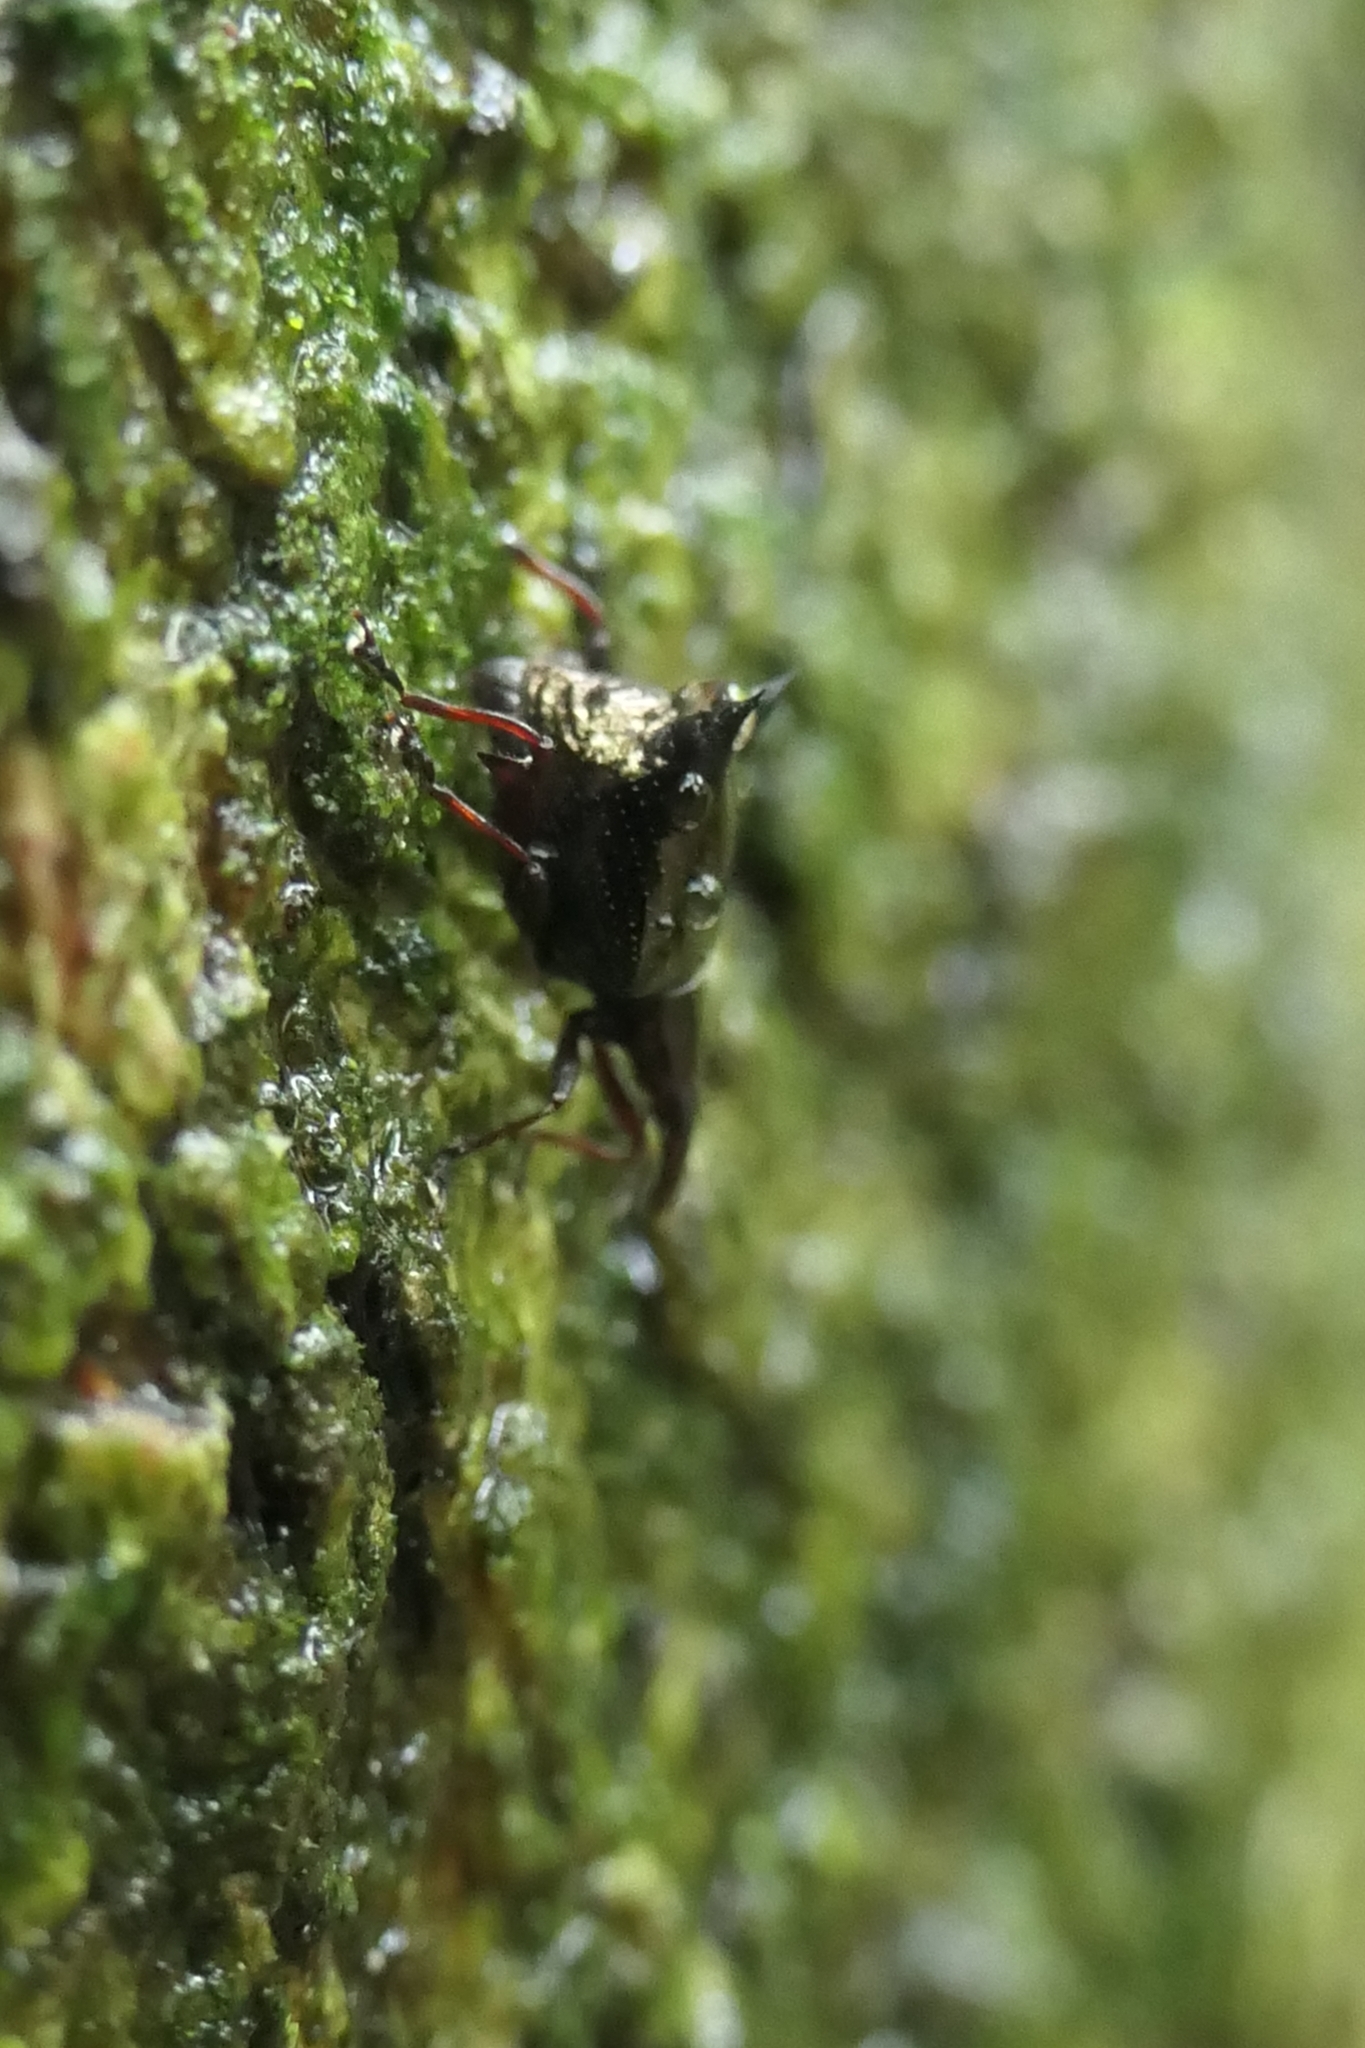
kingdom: Animalia
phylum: Arthropoda
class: Insecta
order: Coleoptera
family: Curculionidae
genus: Scolopterus
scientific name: Scolopterus penicillatus
